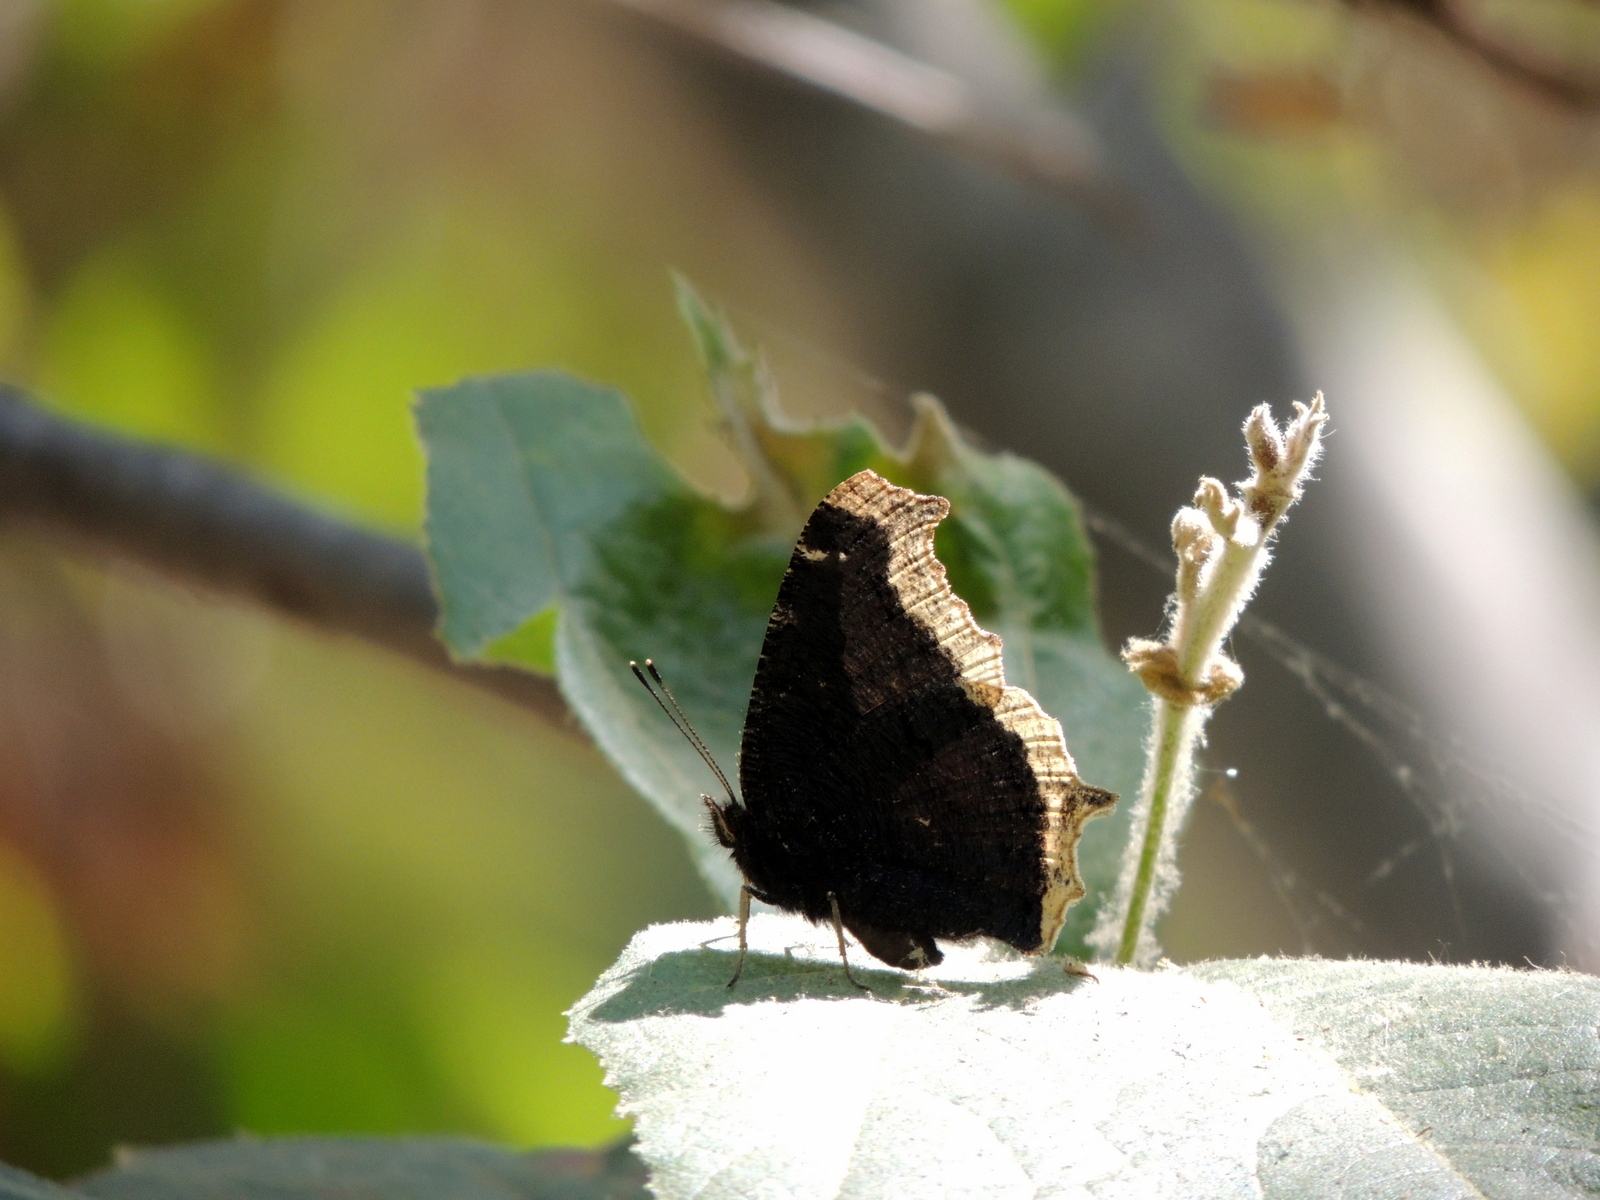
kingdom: Animalia
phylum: Arthropoda
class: Insecta
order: Lepidoptera
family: Nymphalidae
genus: Nymphalis
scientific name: Nymphalis antiopa
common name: Camberwell beauty
